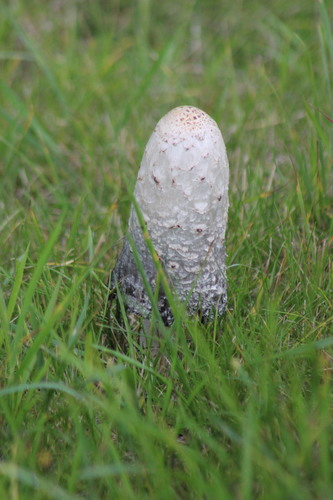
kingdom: Fungi
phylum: Basidiomycota
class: Agaricomycetes
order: Agaricales
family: Agaricaceae
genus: Coprinus
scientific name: Coprinus comatus
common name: Lawyer's wig
